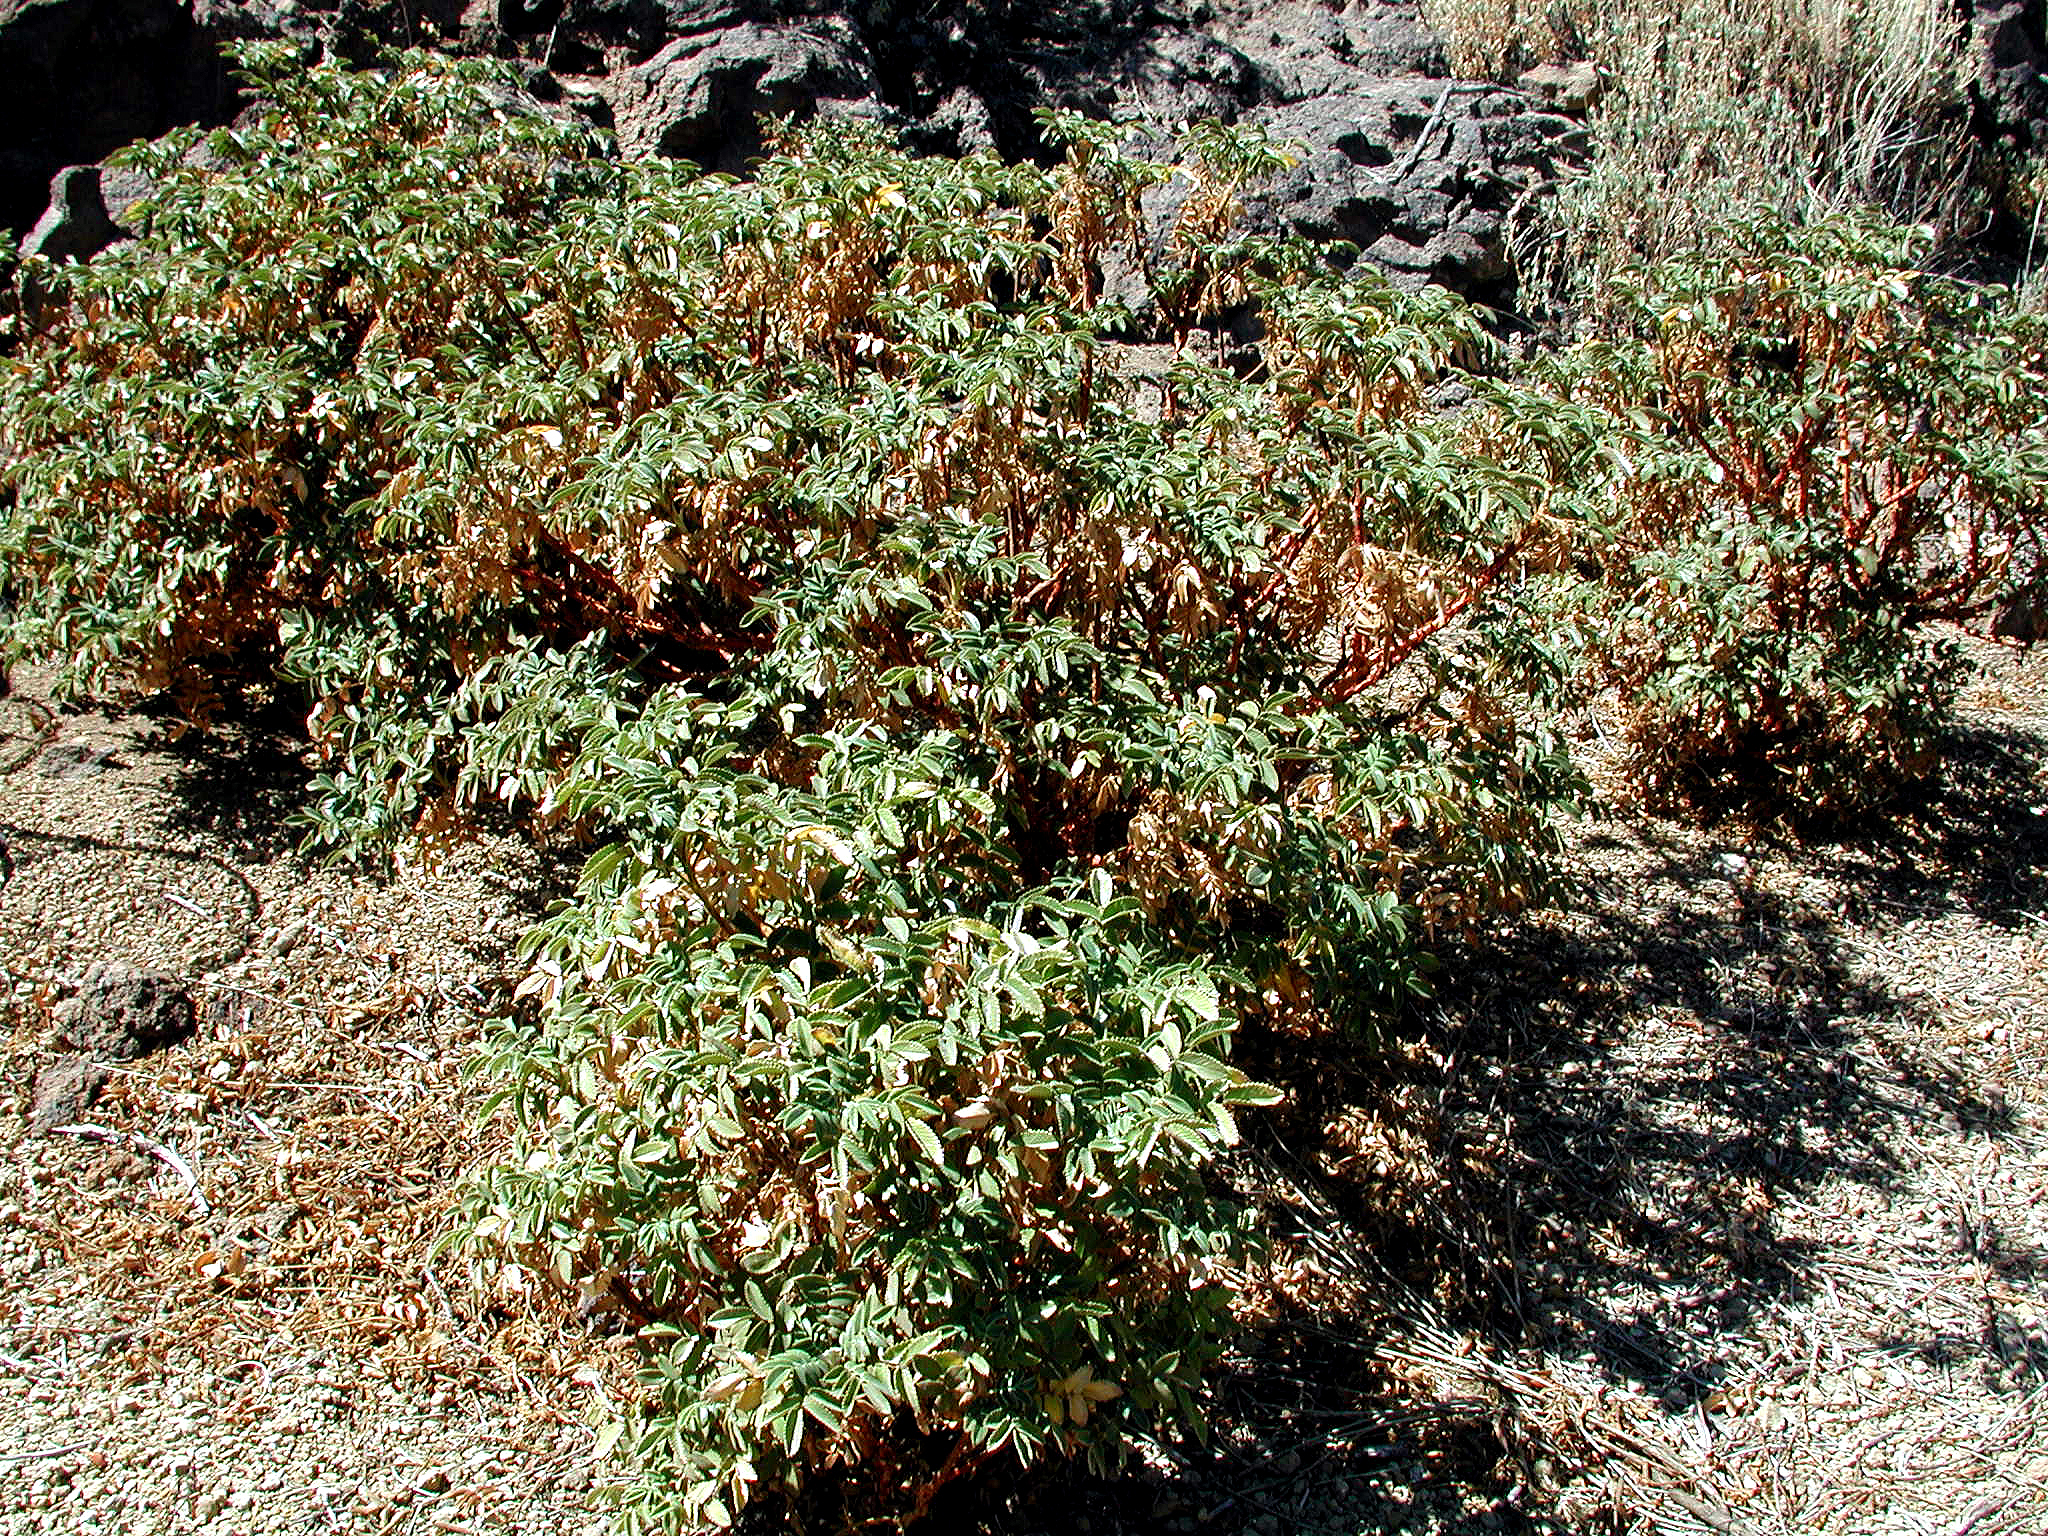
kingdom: Plantae
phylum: Tracheophyta
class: Magnoliopsida
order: Rosales
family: Rosaceae
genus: Bencomia
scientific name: Bencomia exstipulata
